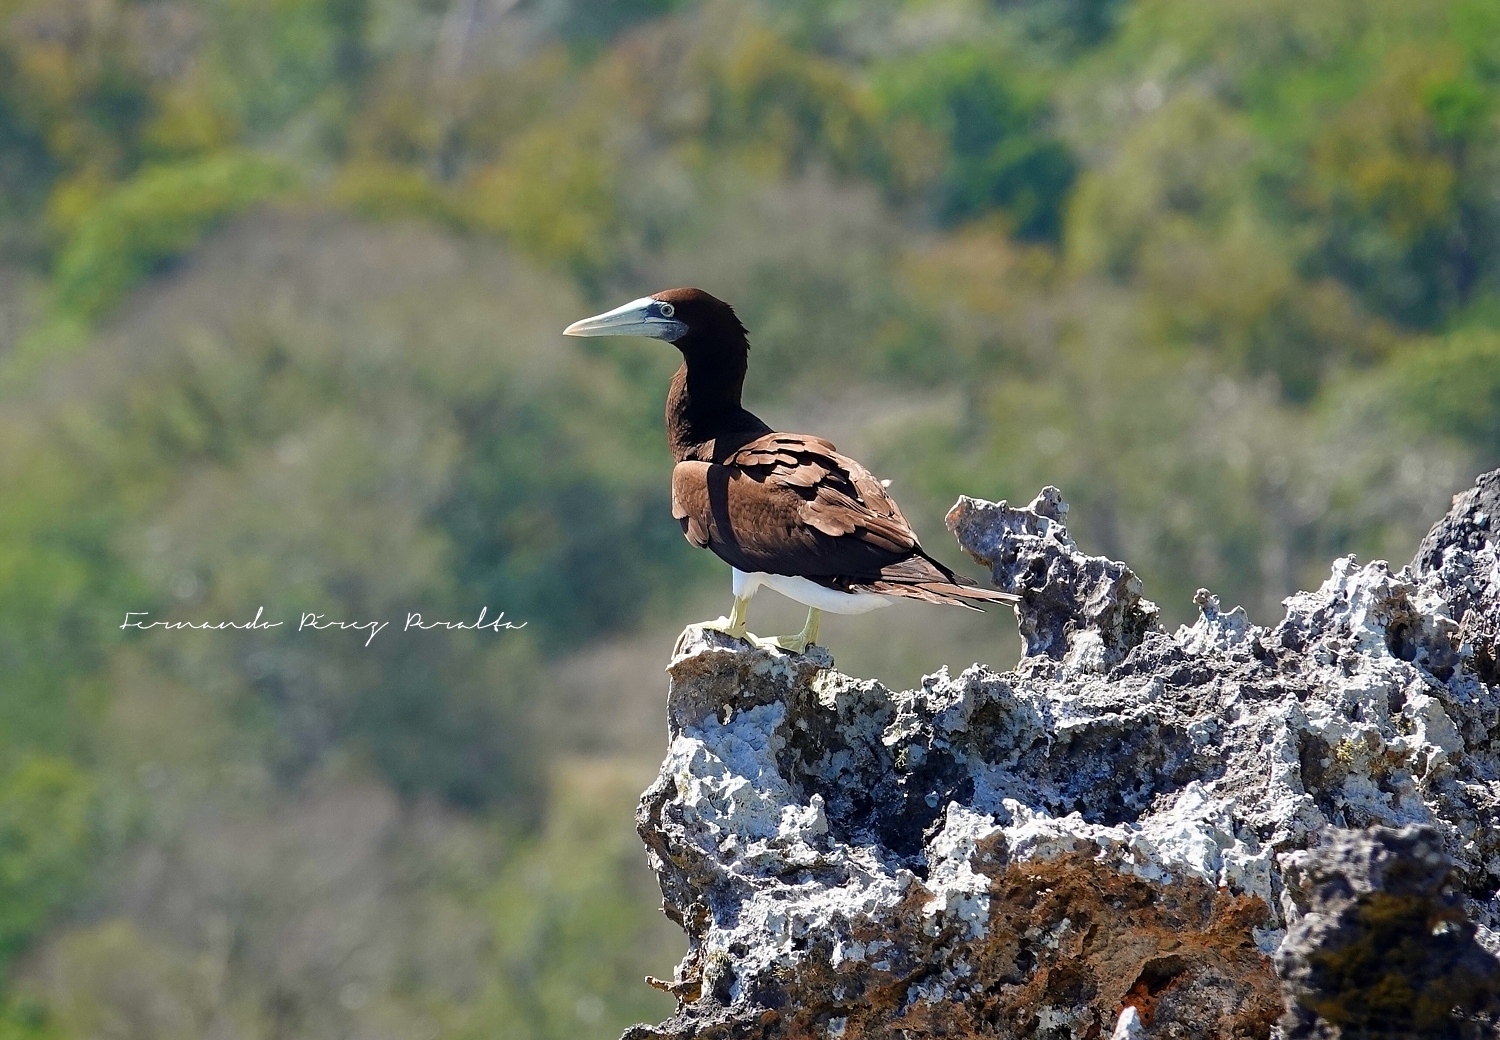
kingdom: Animalia
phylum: Chordata
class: Aves
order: Suliformes
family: Sulidae
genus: Sula
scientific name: Sula leucogaster
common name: Brown booby
